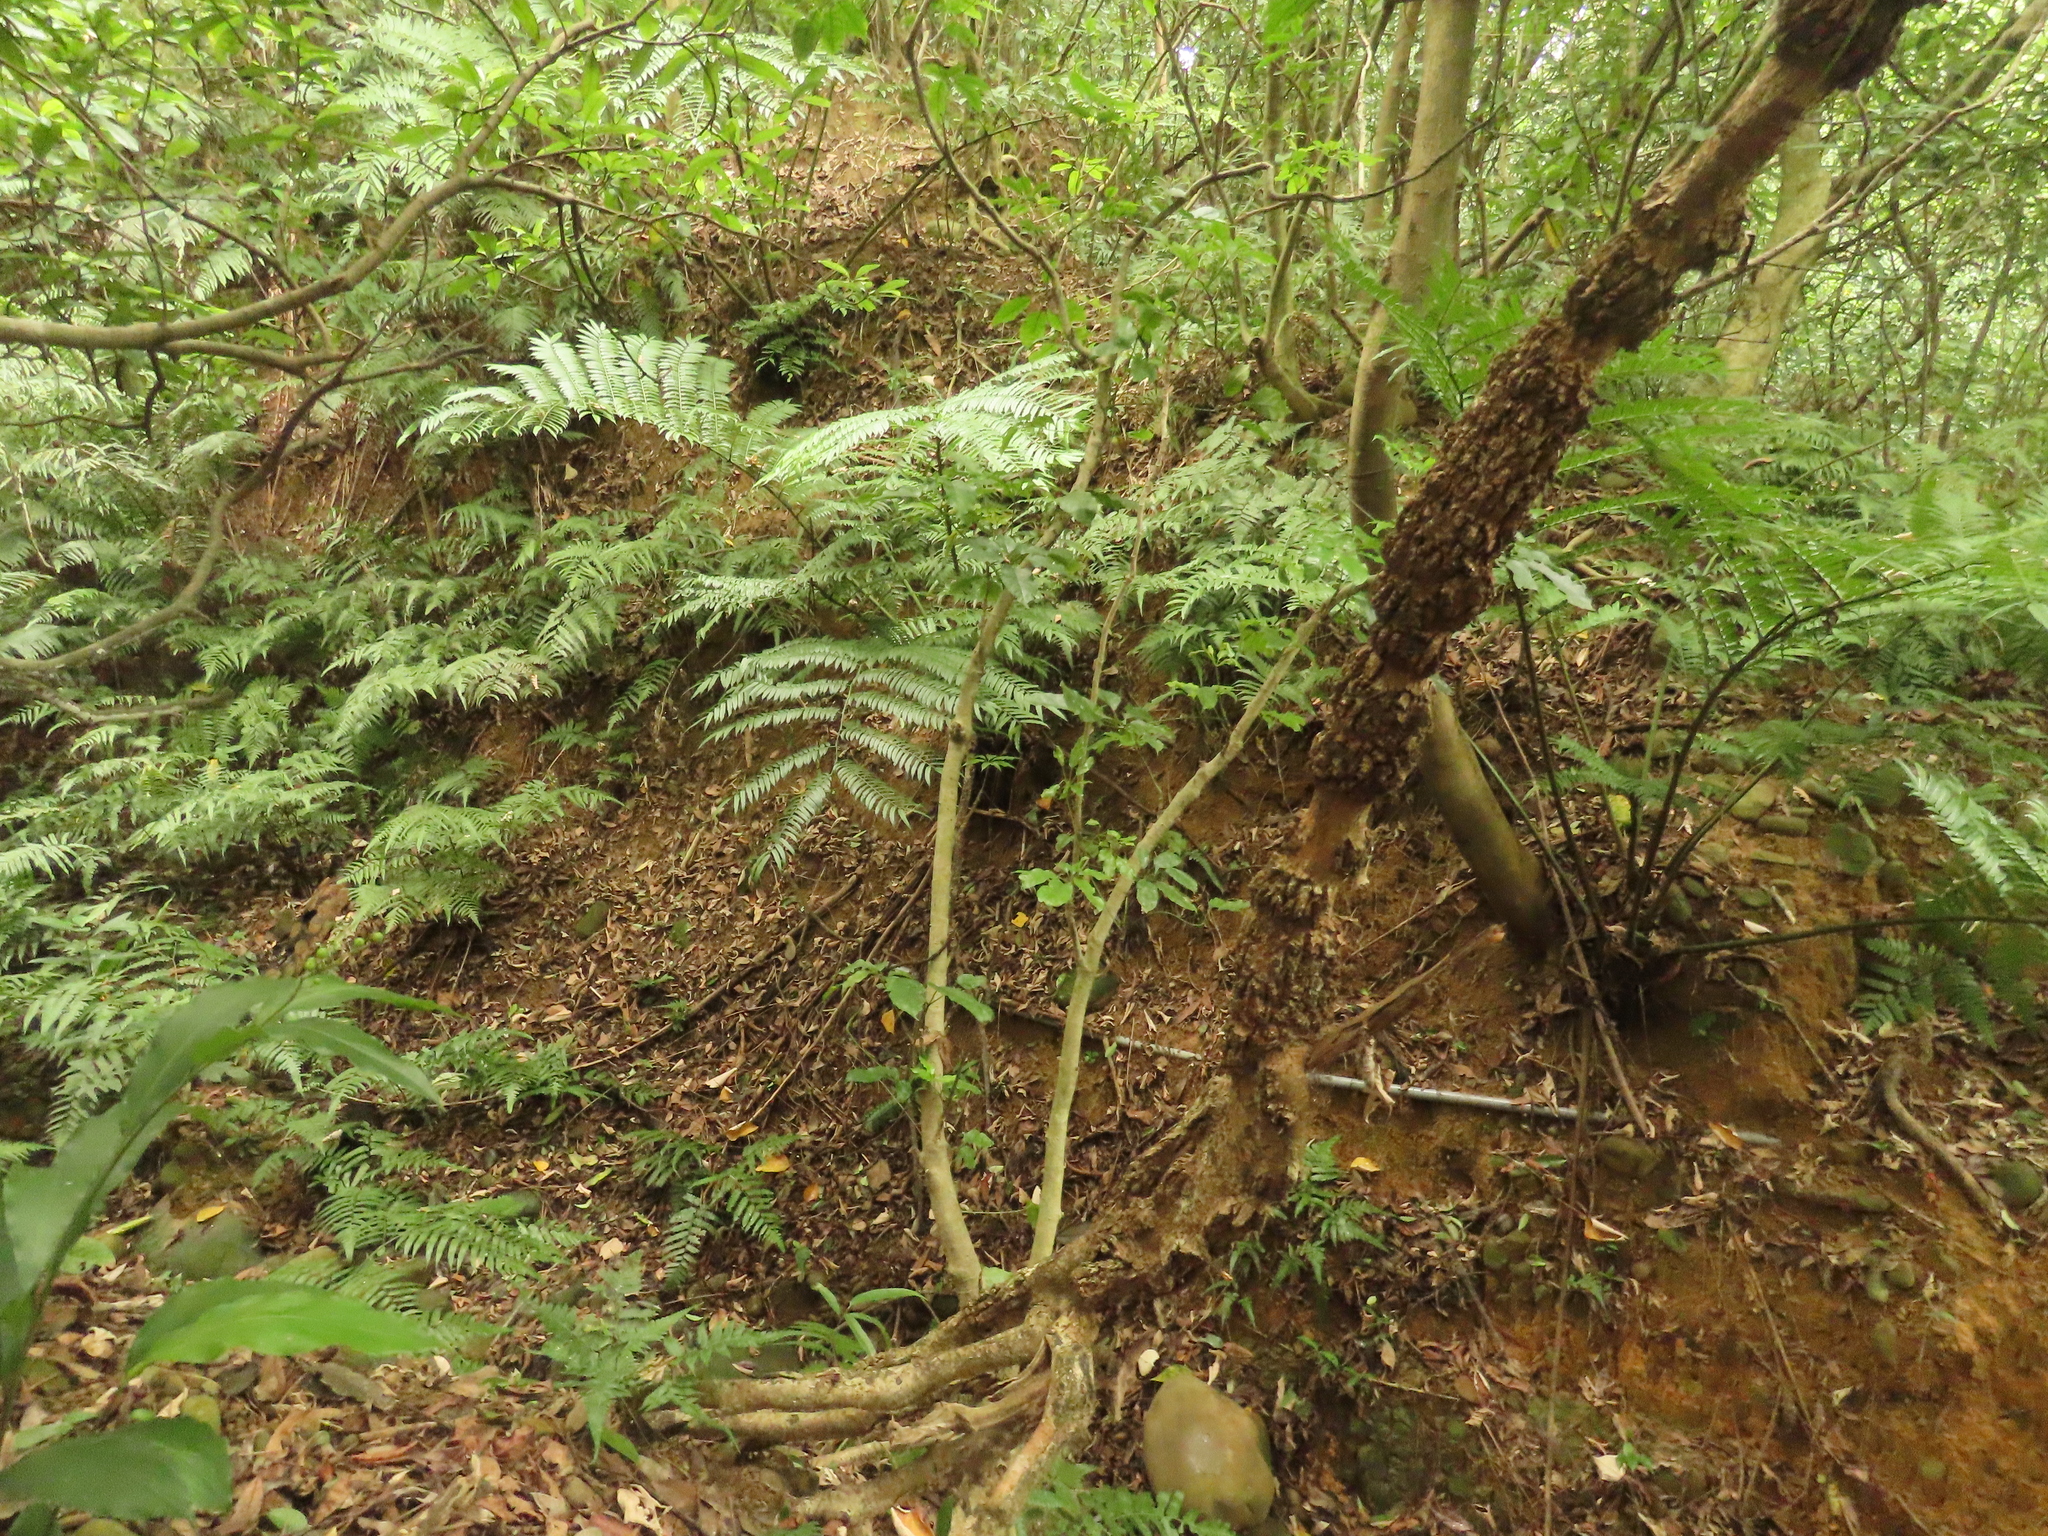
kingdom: Plantae
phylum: Tracheophyta
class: Polypodiopsida
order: Marattiales
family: Marattiaceae
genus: Angiopteris
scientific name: Angiopteris lygodiifolia
